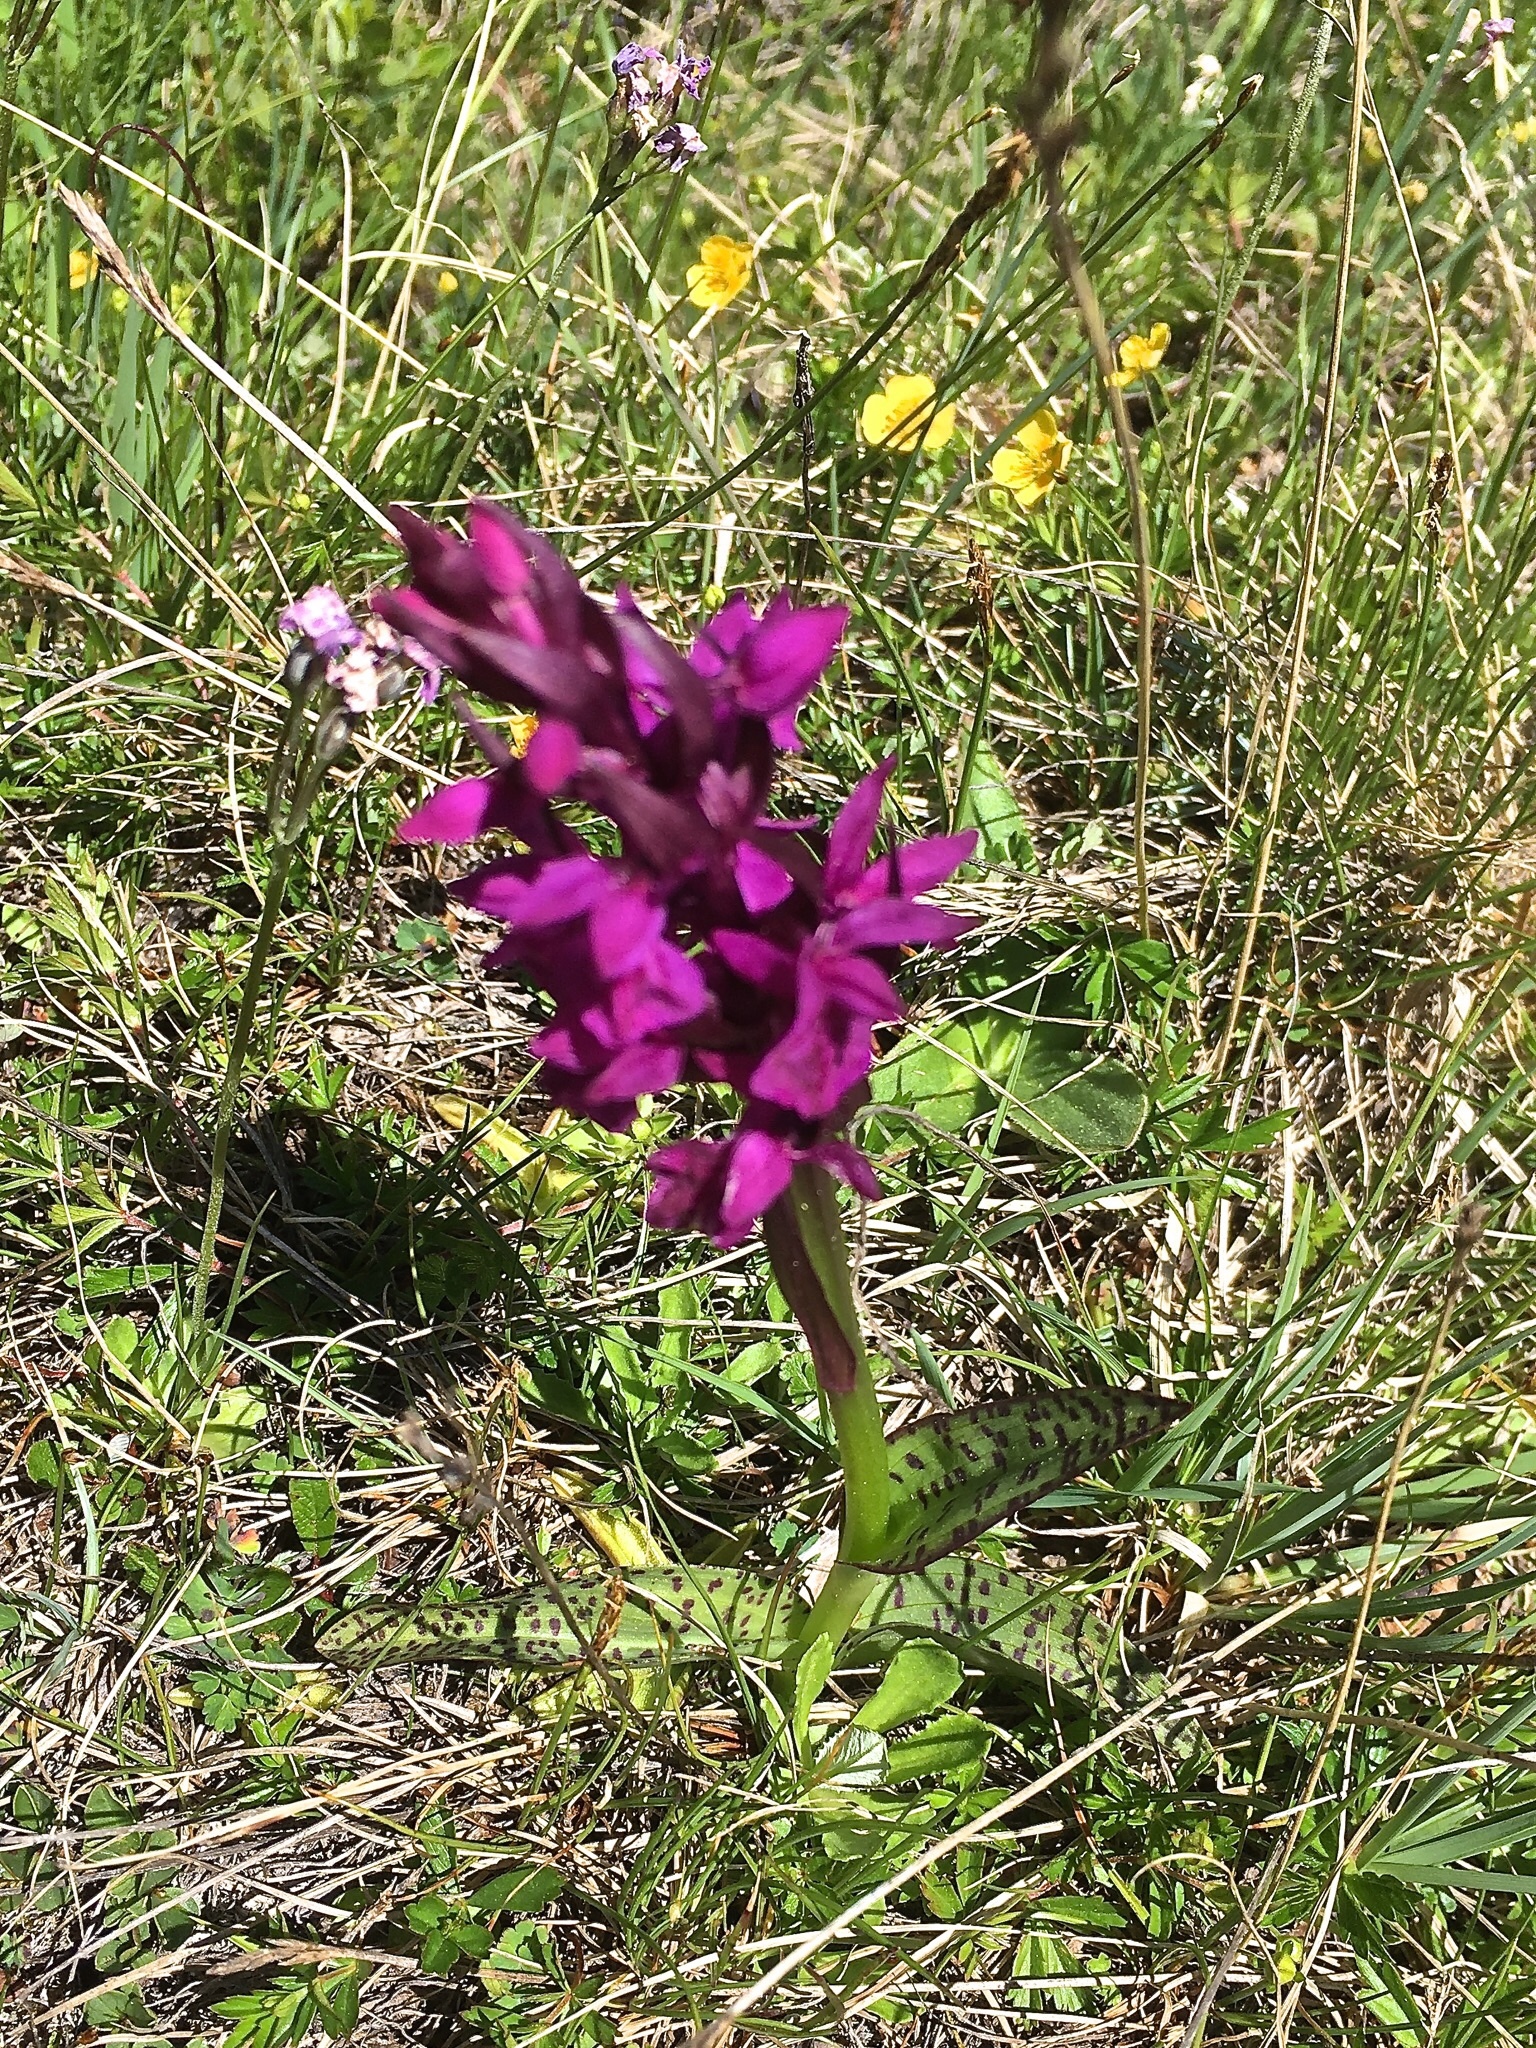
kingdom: Plantae
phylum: Tracheophyta
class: Liliopsida
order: Asparagales
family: Orchidaceae
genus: Dactylorhiza
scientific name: Dactylorhiza majalis
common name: Marsh orchid
